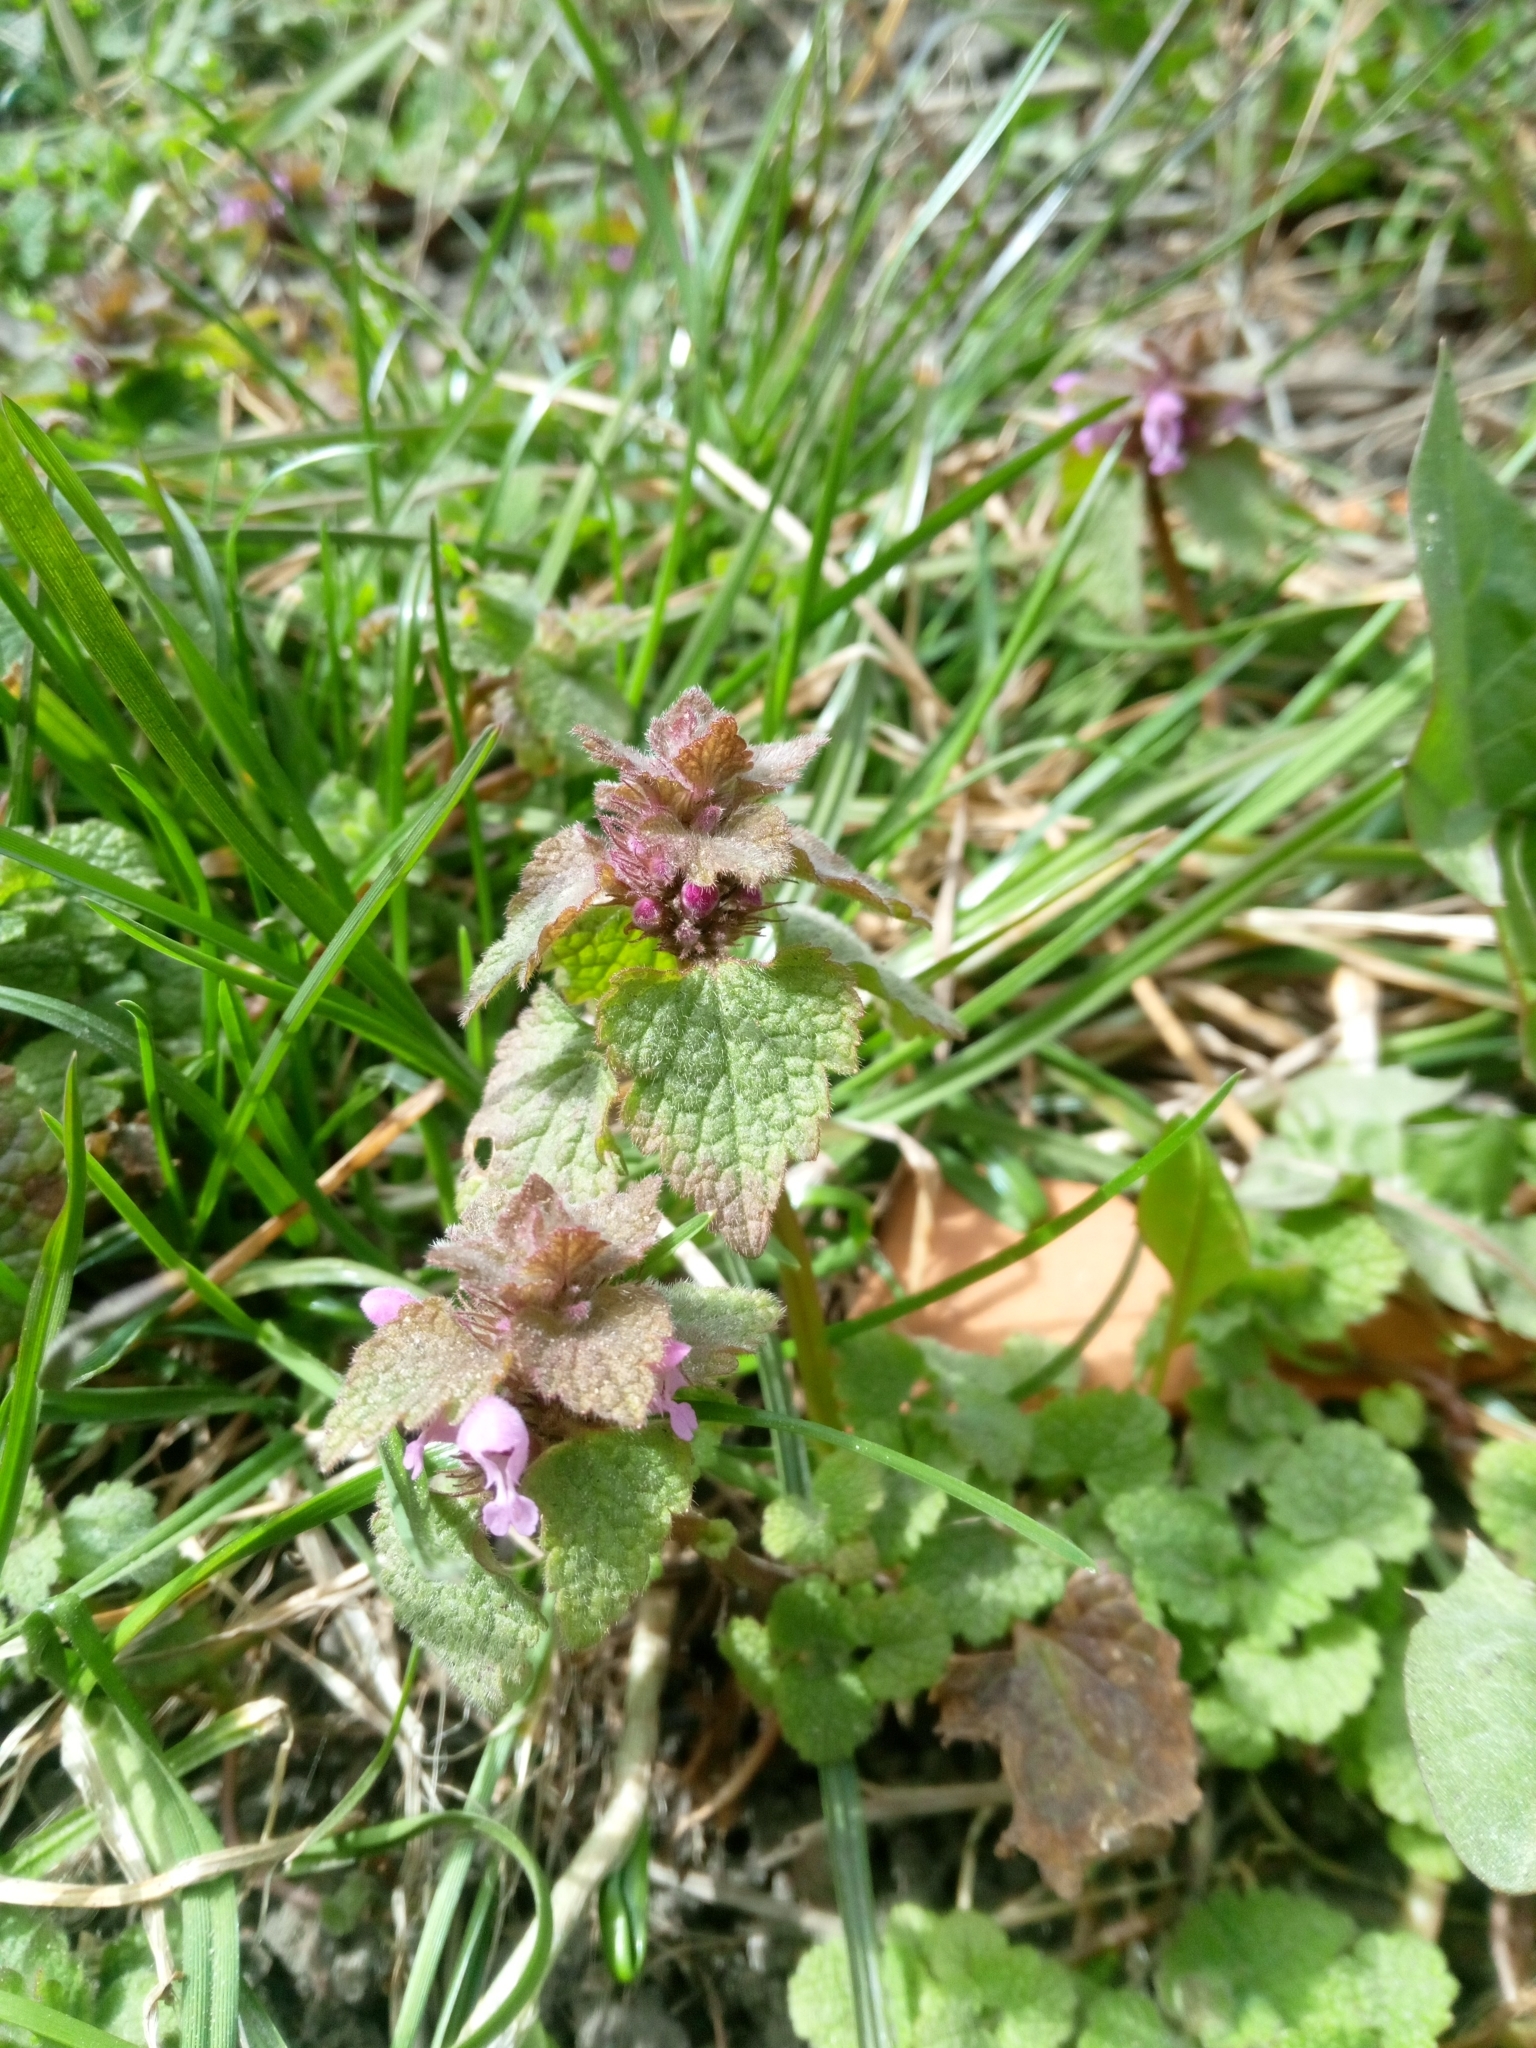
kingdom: Plantae
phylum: Tracheophyta
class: Magnoliopsida
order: Lamiales
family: Lamiaceae
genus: Lamium
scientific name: Lamium purpureum
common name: Red dead-nettle
